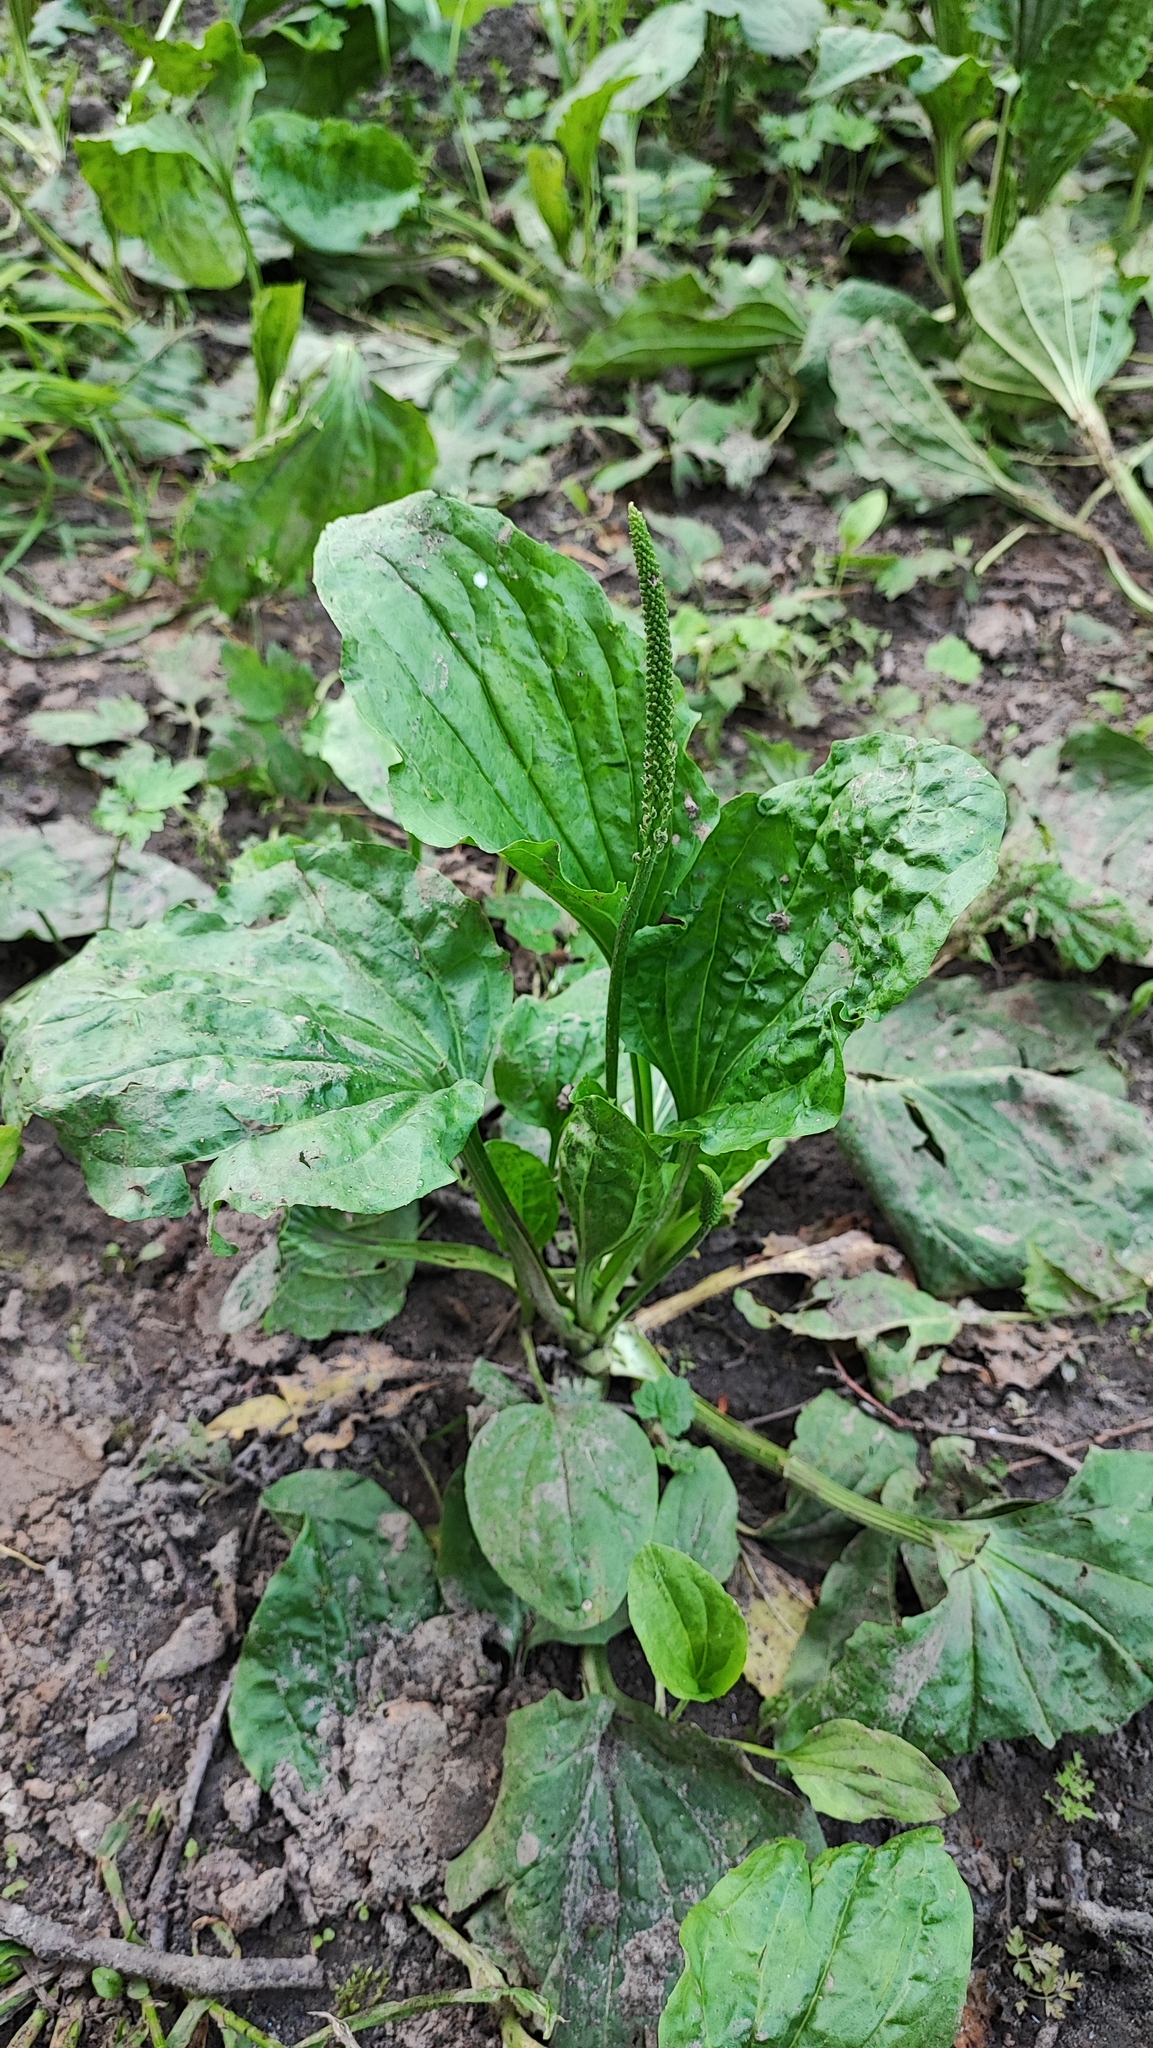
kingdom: Plantae
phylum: Tracheophyta
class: Magnoliopsida
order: Lamiales
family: Plantaginaceae
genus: Plantago
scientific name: Plantago major
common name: Common plantain
